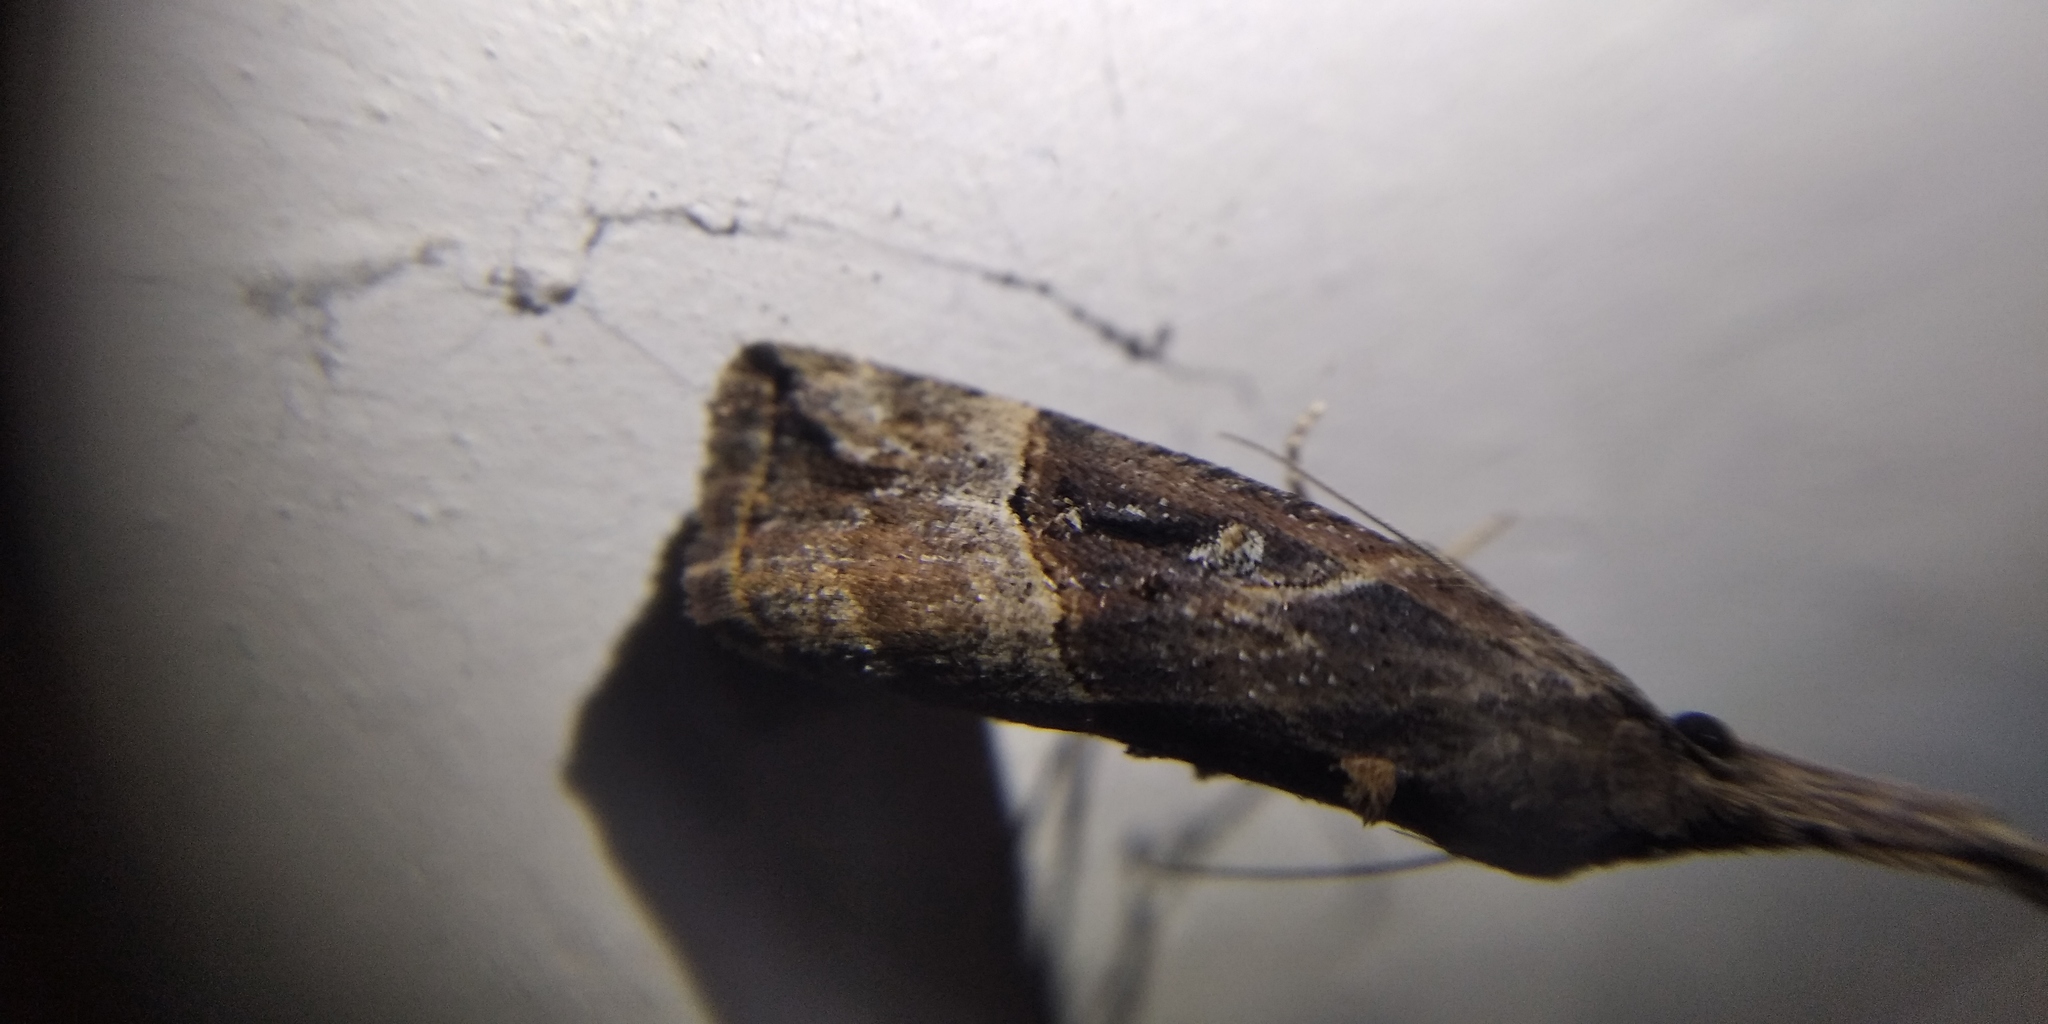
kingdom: Animalia
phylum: Arthropoda
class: Insecta
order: Lepidoptera
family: Erebidae
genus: Hypena
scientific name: Hypena rostralis
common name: Buttoned snout
